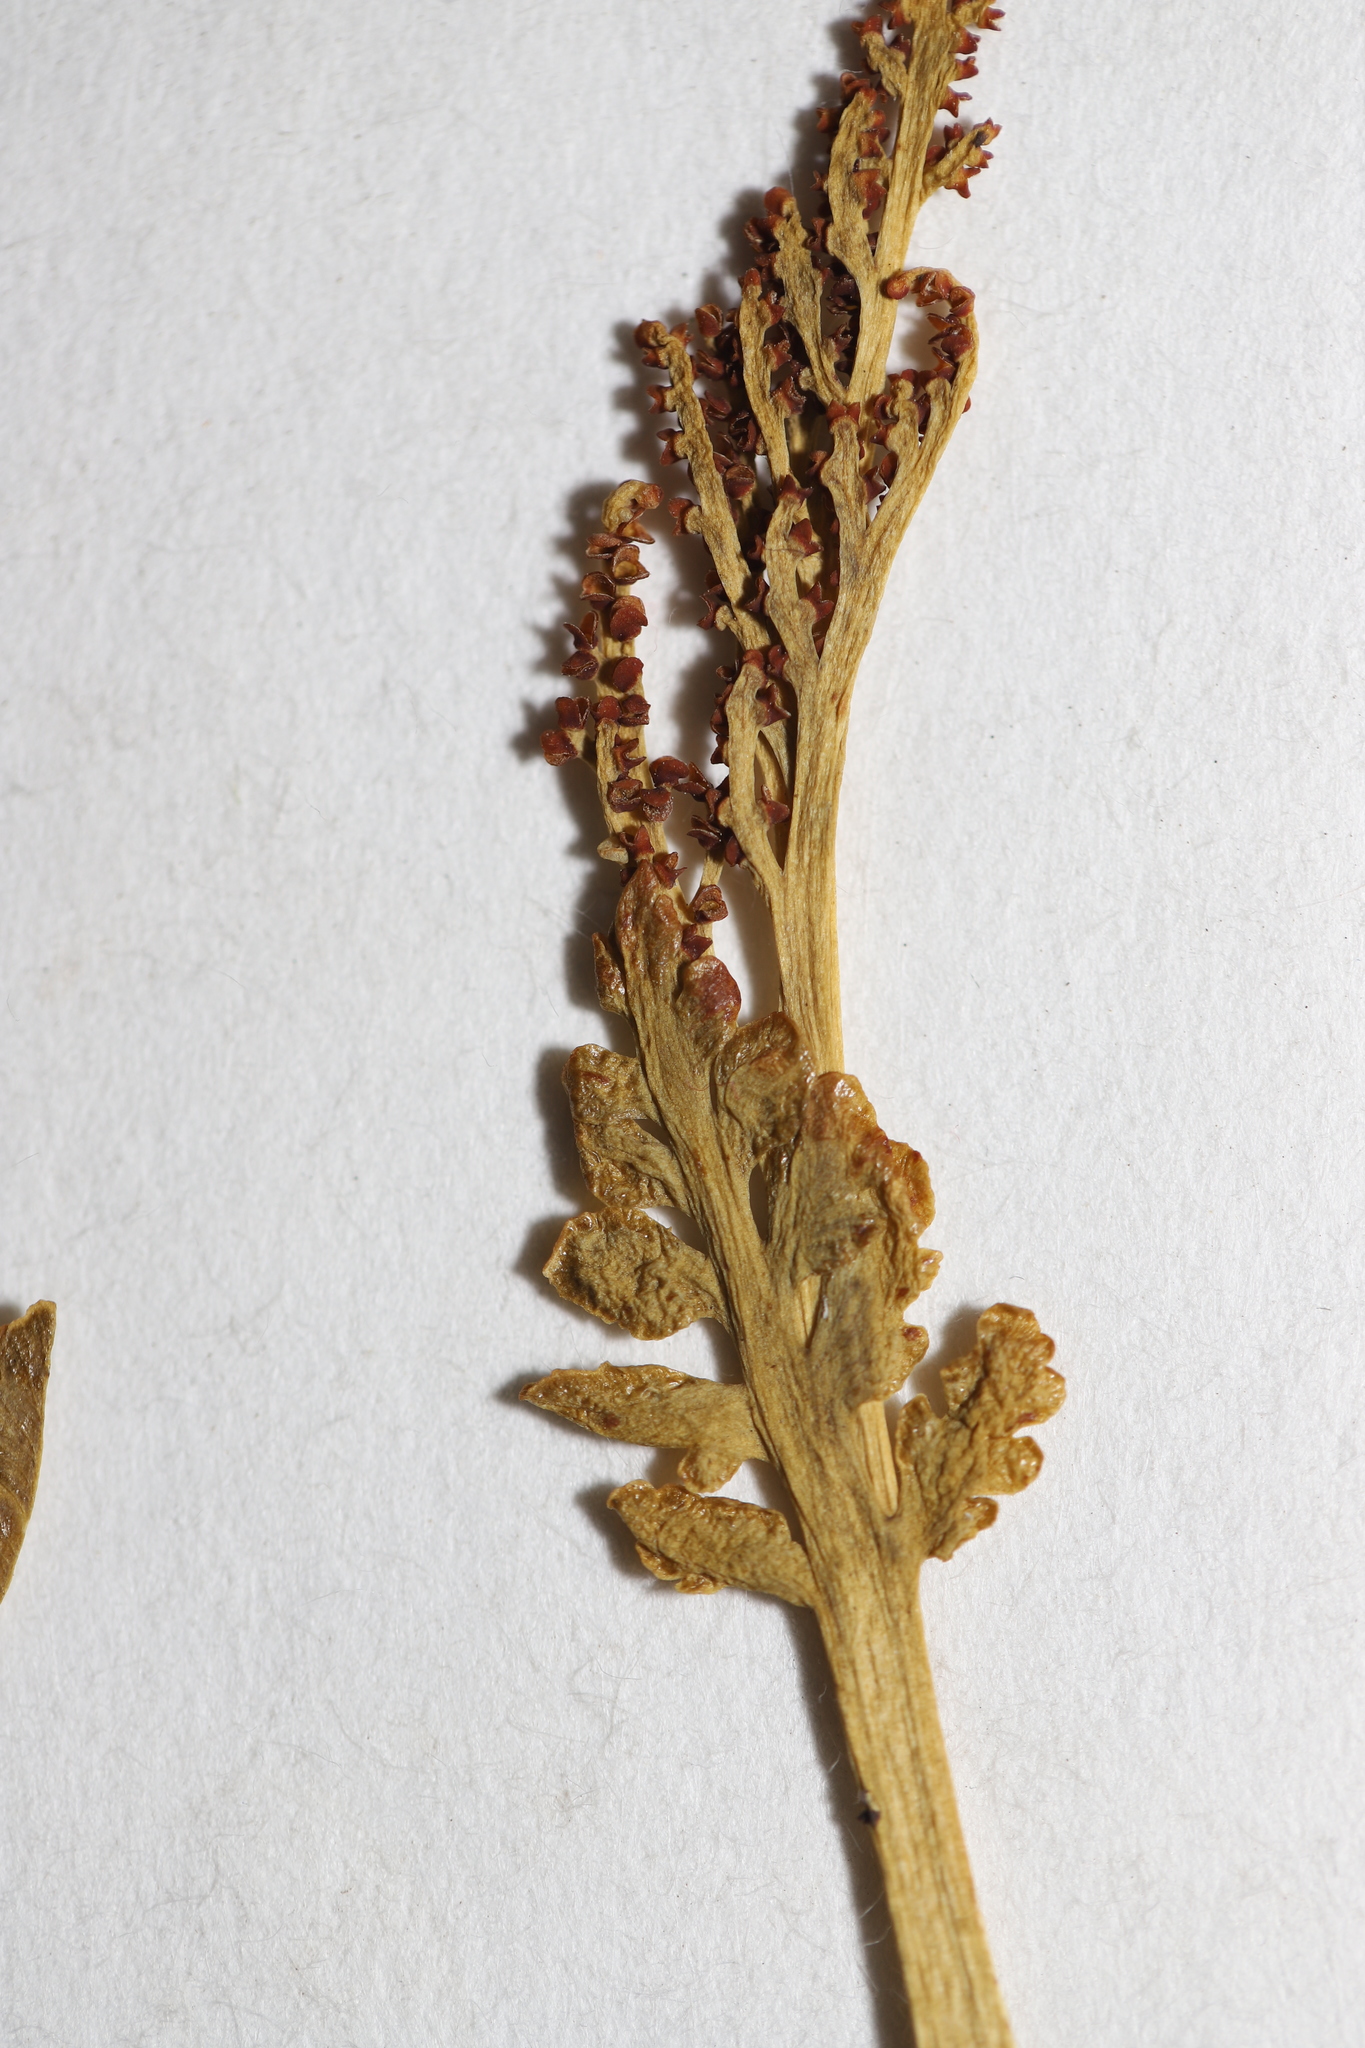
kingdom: Plantae
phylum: Tracheophyta
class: Polypodiopsida
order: Ophioglossales
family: Ophioglossaceae
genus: Botrychium
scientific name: Botrychium matricariifolium
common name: Branched moonwort
